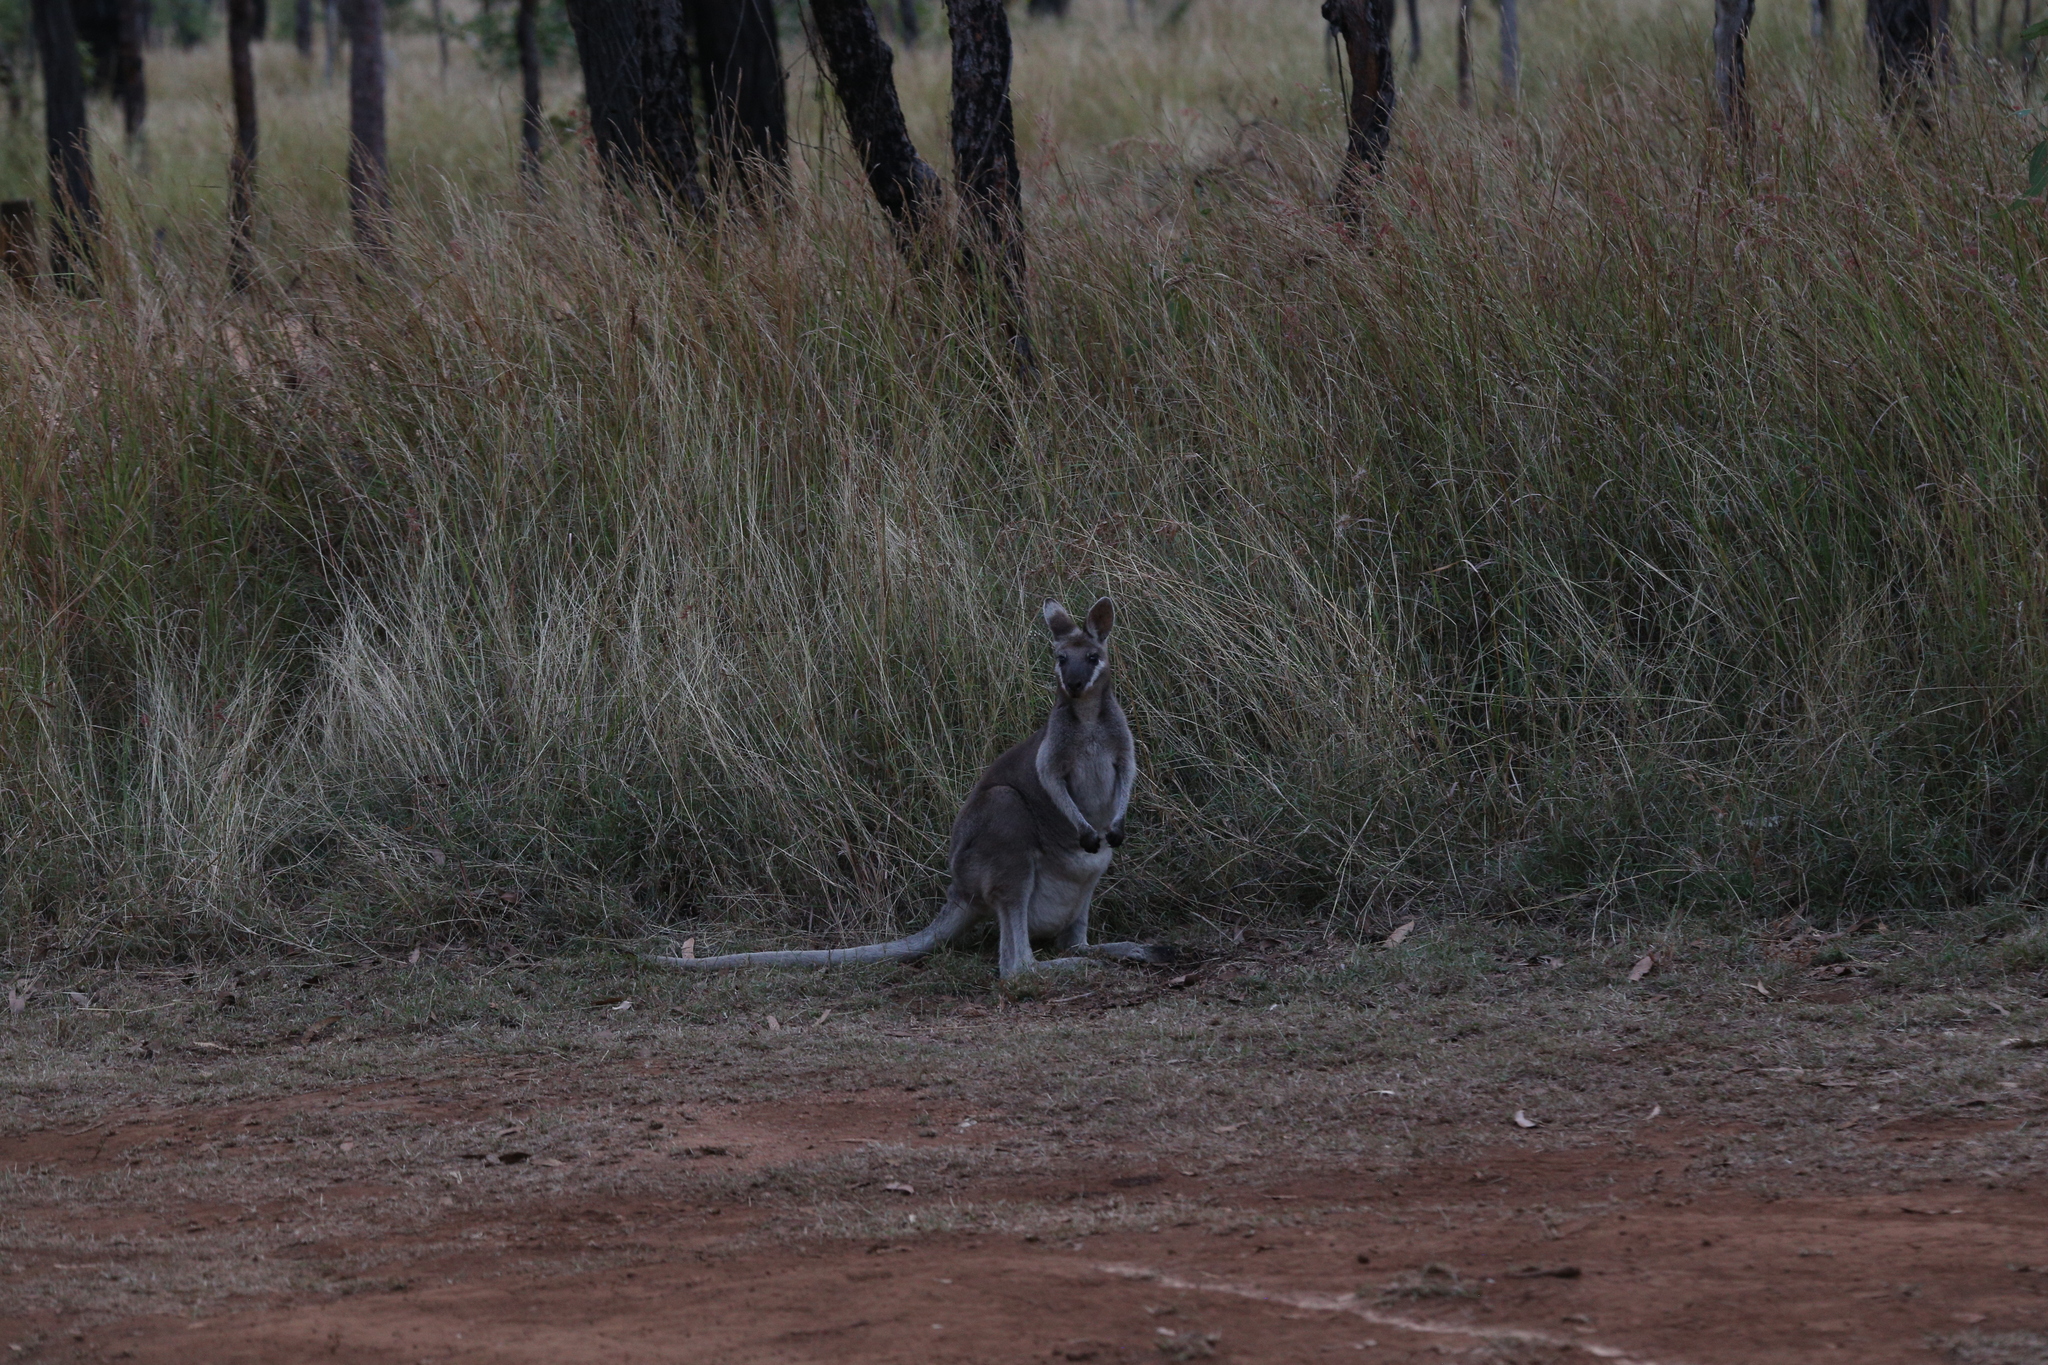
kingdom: Animalia
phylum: Chordata
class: Mammalia
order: Diprotodontia
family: Macropodidae
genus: Notamacropus
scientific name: Notamacropus parryi
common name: Whip-tailed wallaby
